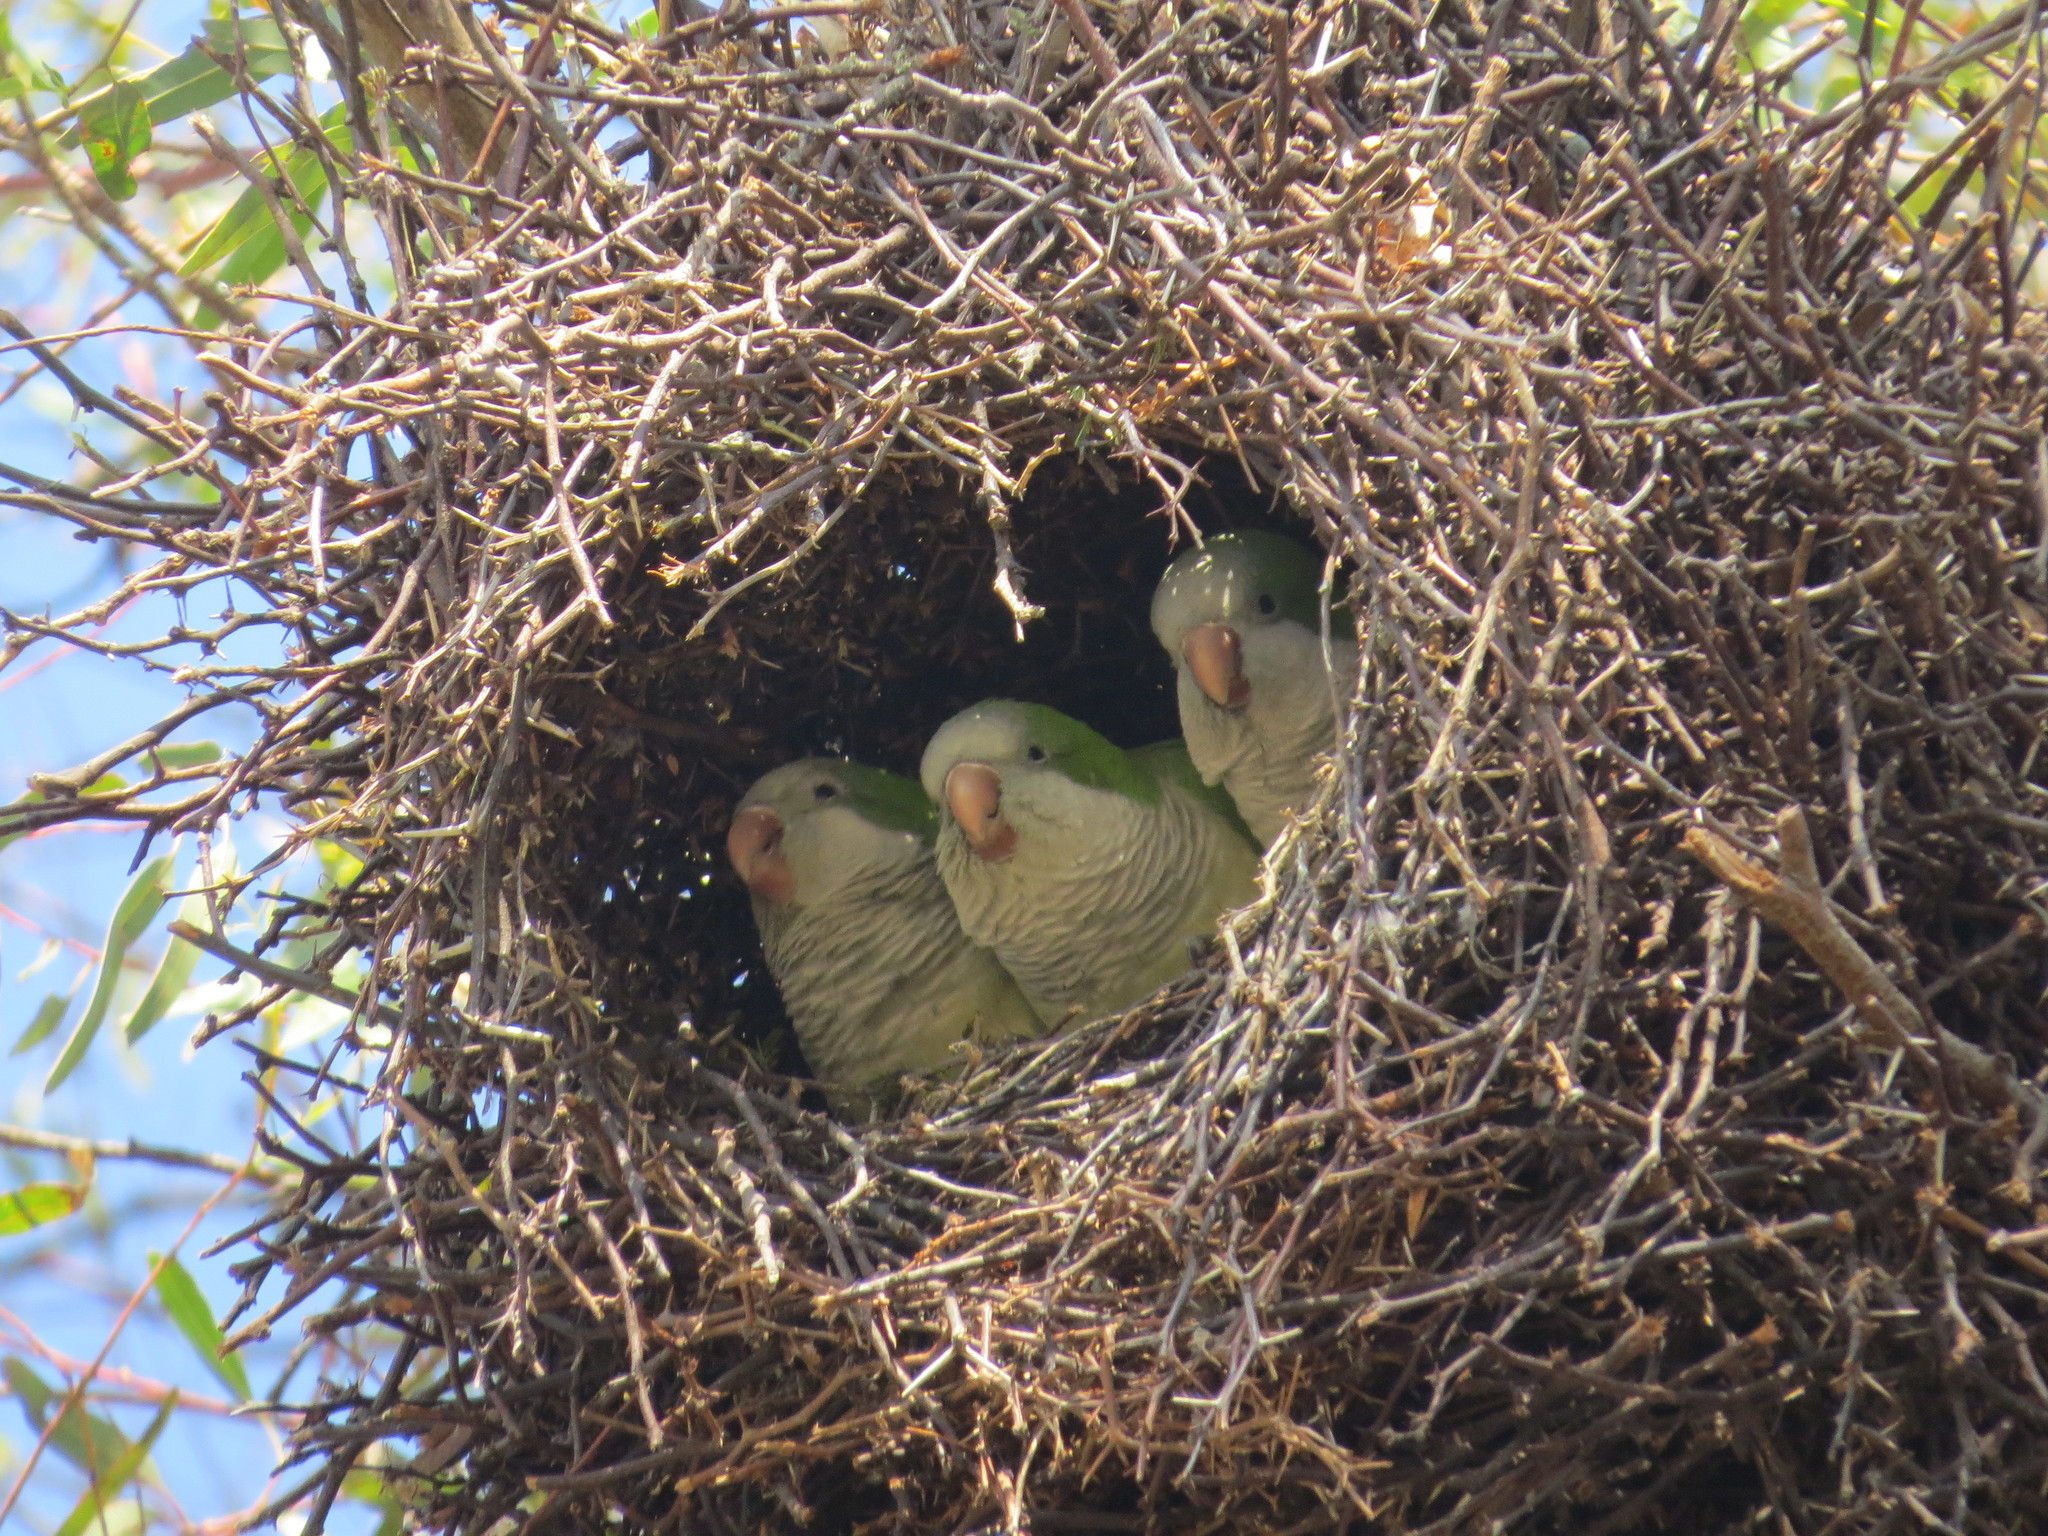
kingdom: Animalia
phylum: Chordata
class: Aves
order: Psittaciformes
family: Psittacidae
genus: Myiopsitta
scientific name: Myiopsitta monachus
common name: Monk parakeet
